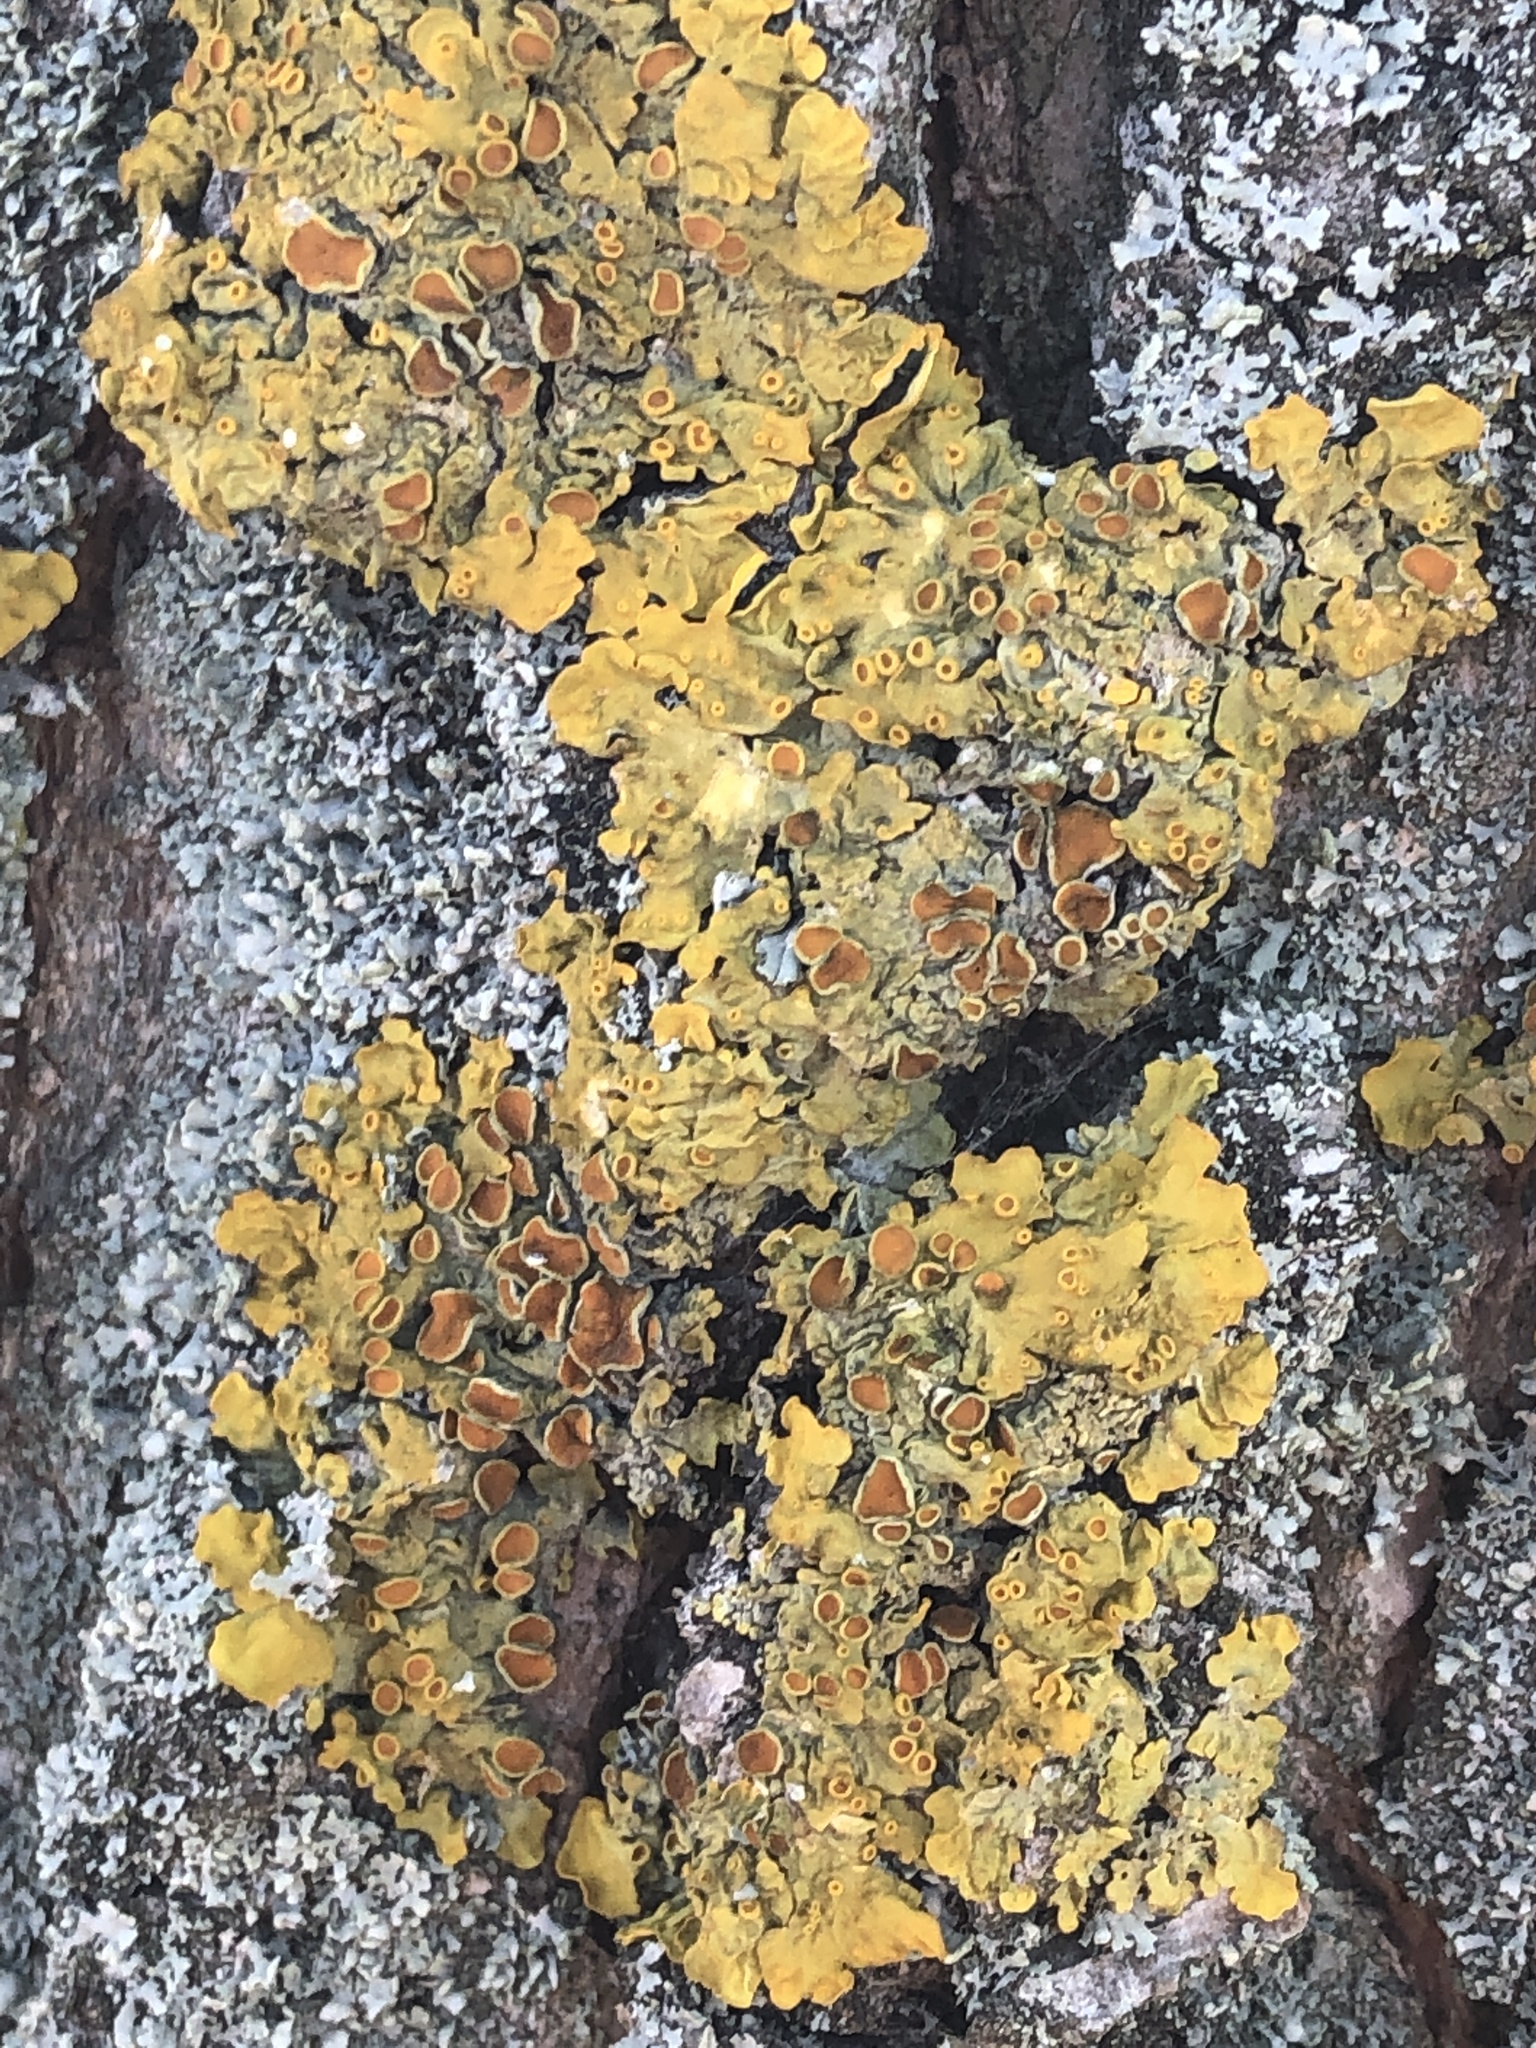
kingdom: Fungi
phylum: Ascomycota
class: Lecanoromycetes
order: Teloschistales
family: Teloschistaceae
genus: Xanthoria
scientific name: Xanthoria parietina
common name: Common orange lichen
